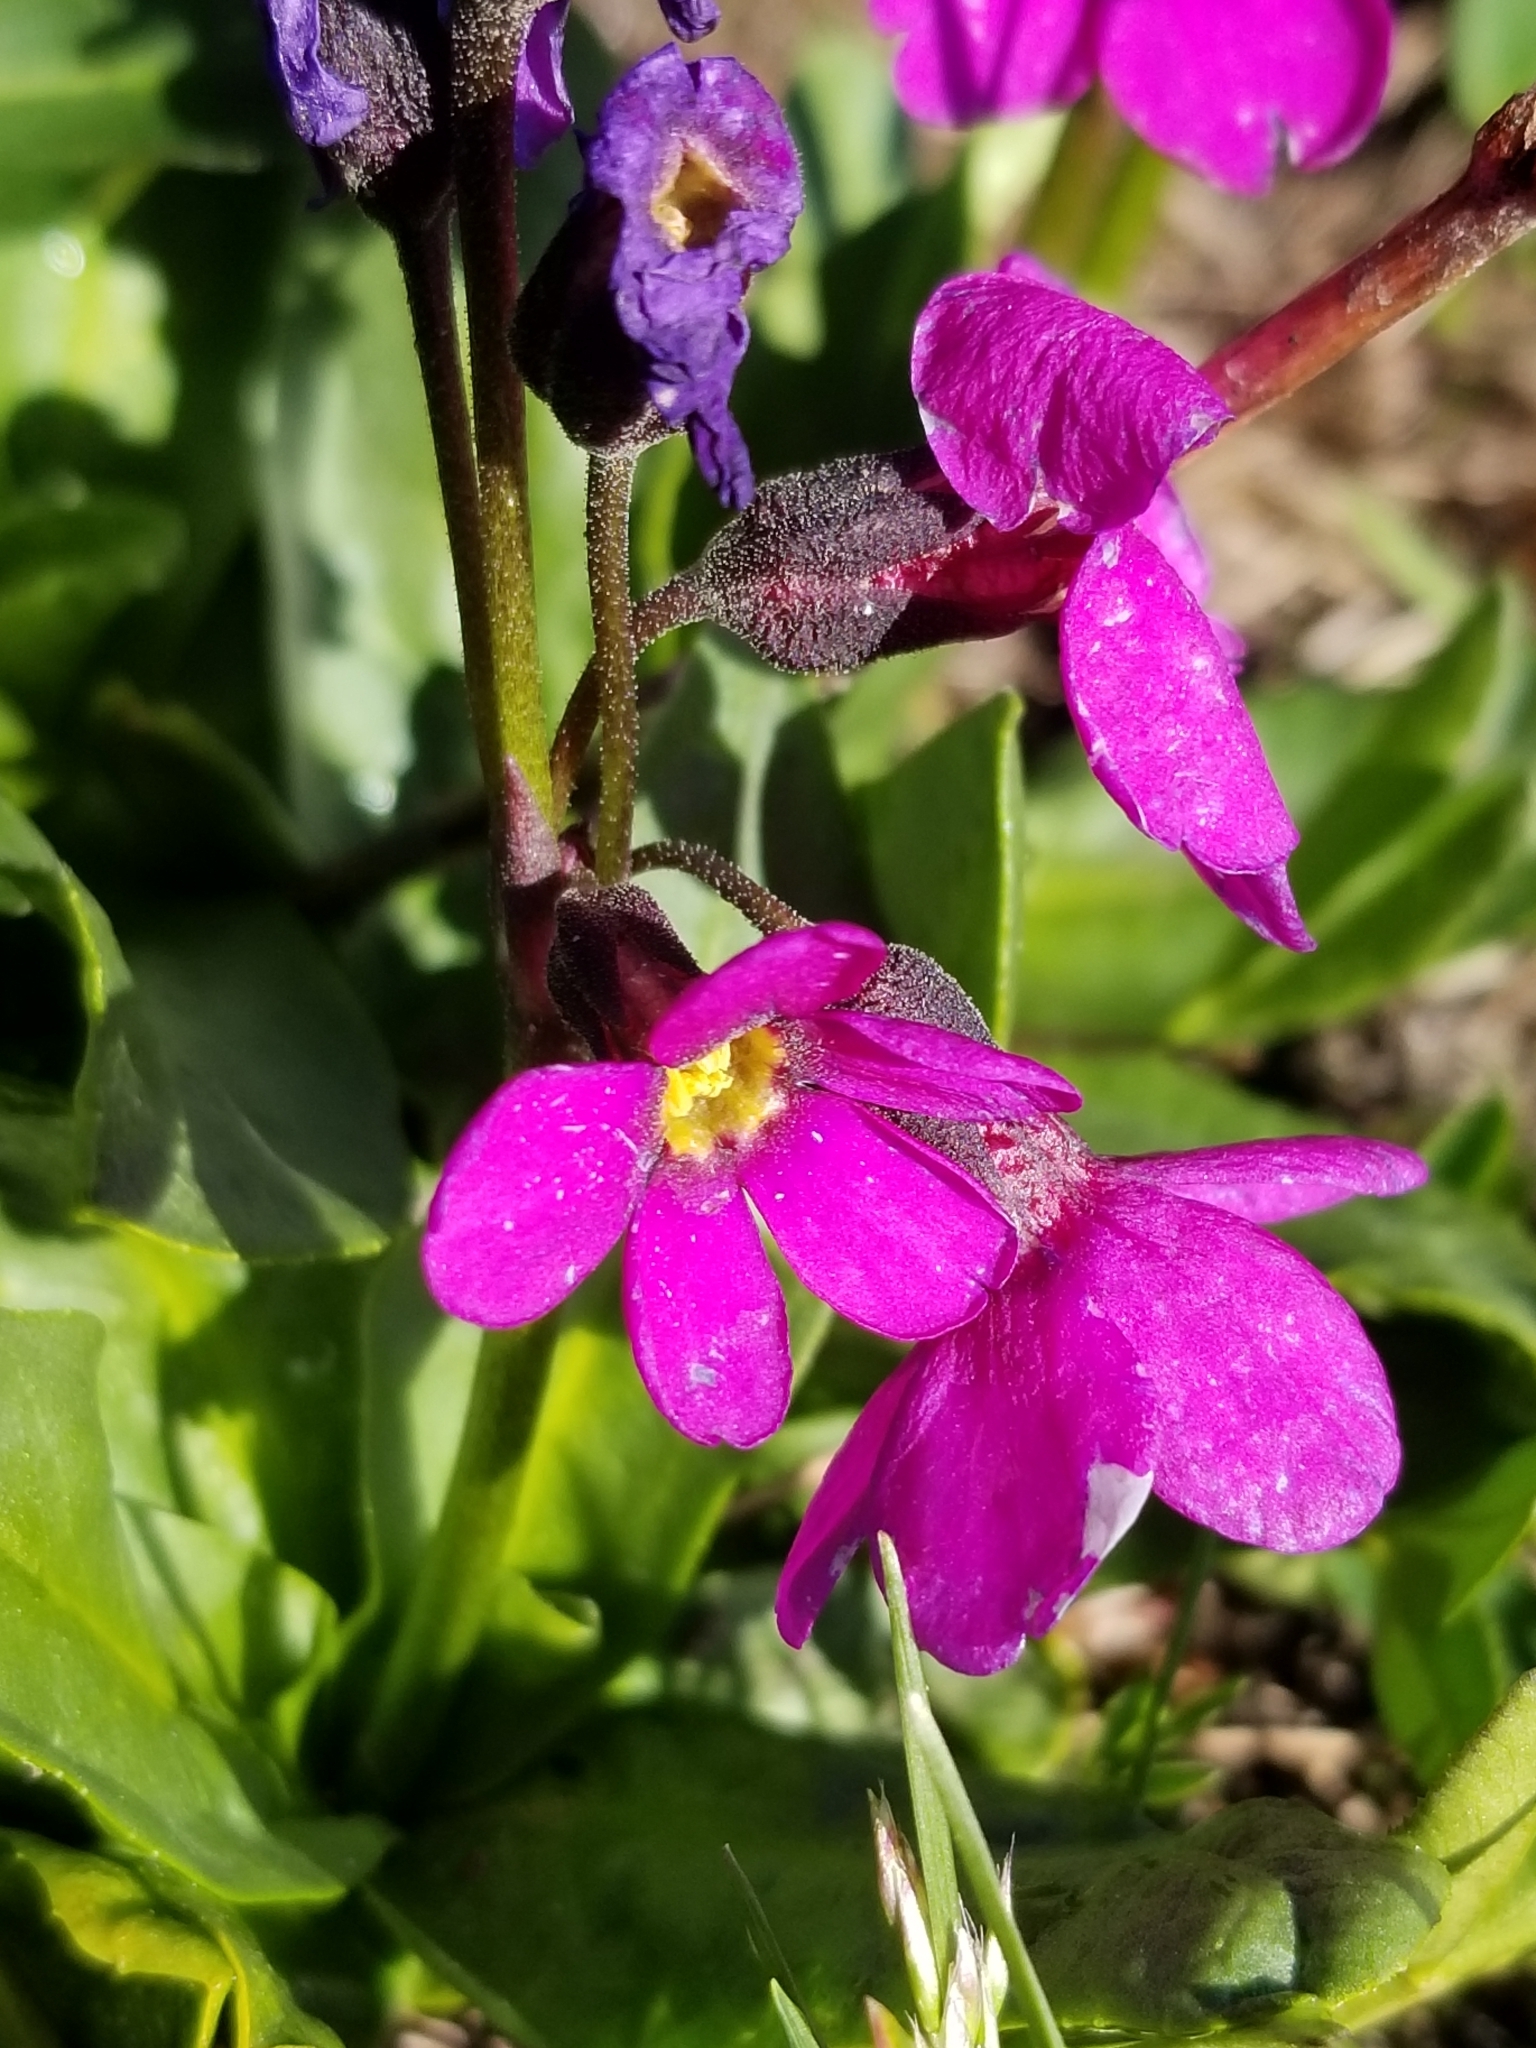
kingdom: Plantae
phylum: Tracheophyta
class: Magnoliopsida
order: Ericales
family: Primulaceae
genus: Primula
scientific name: Primula parryi
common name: Parry's primrose
